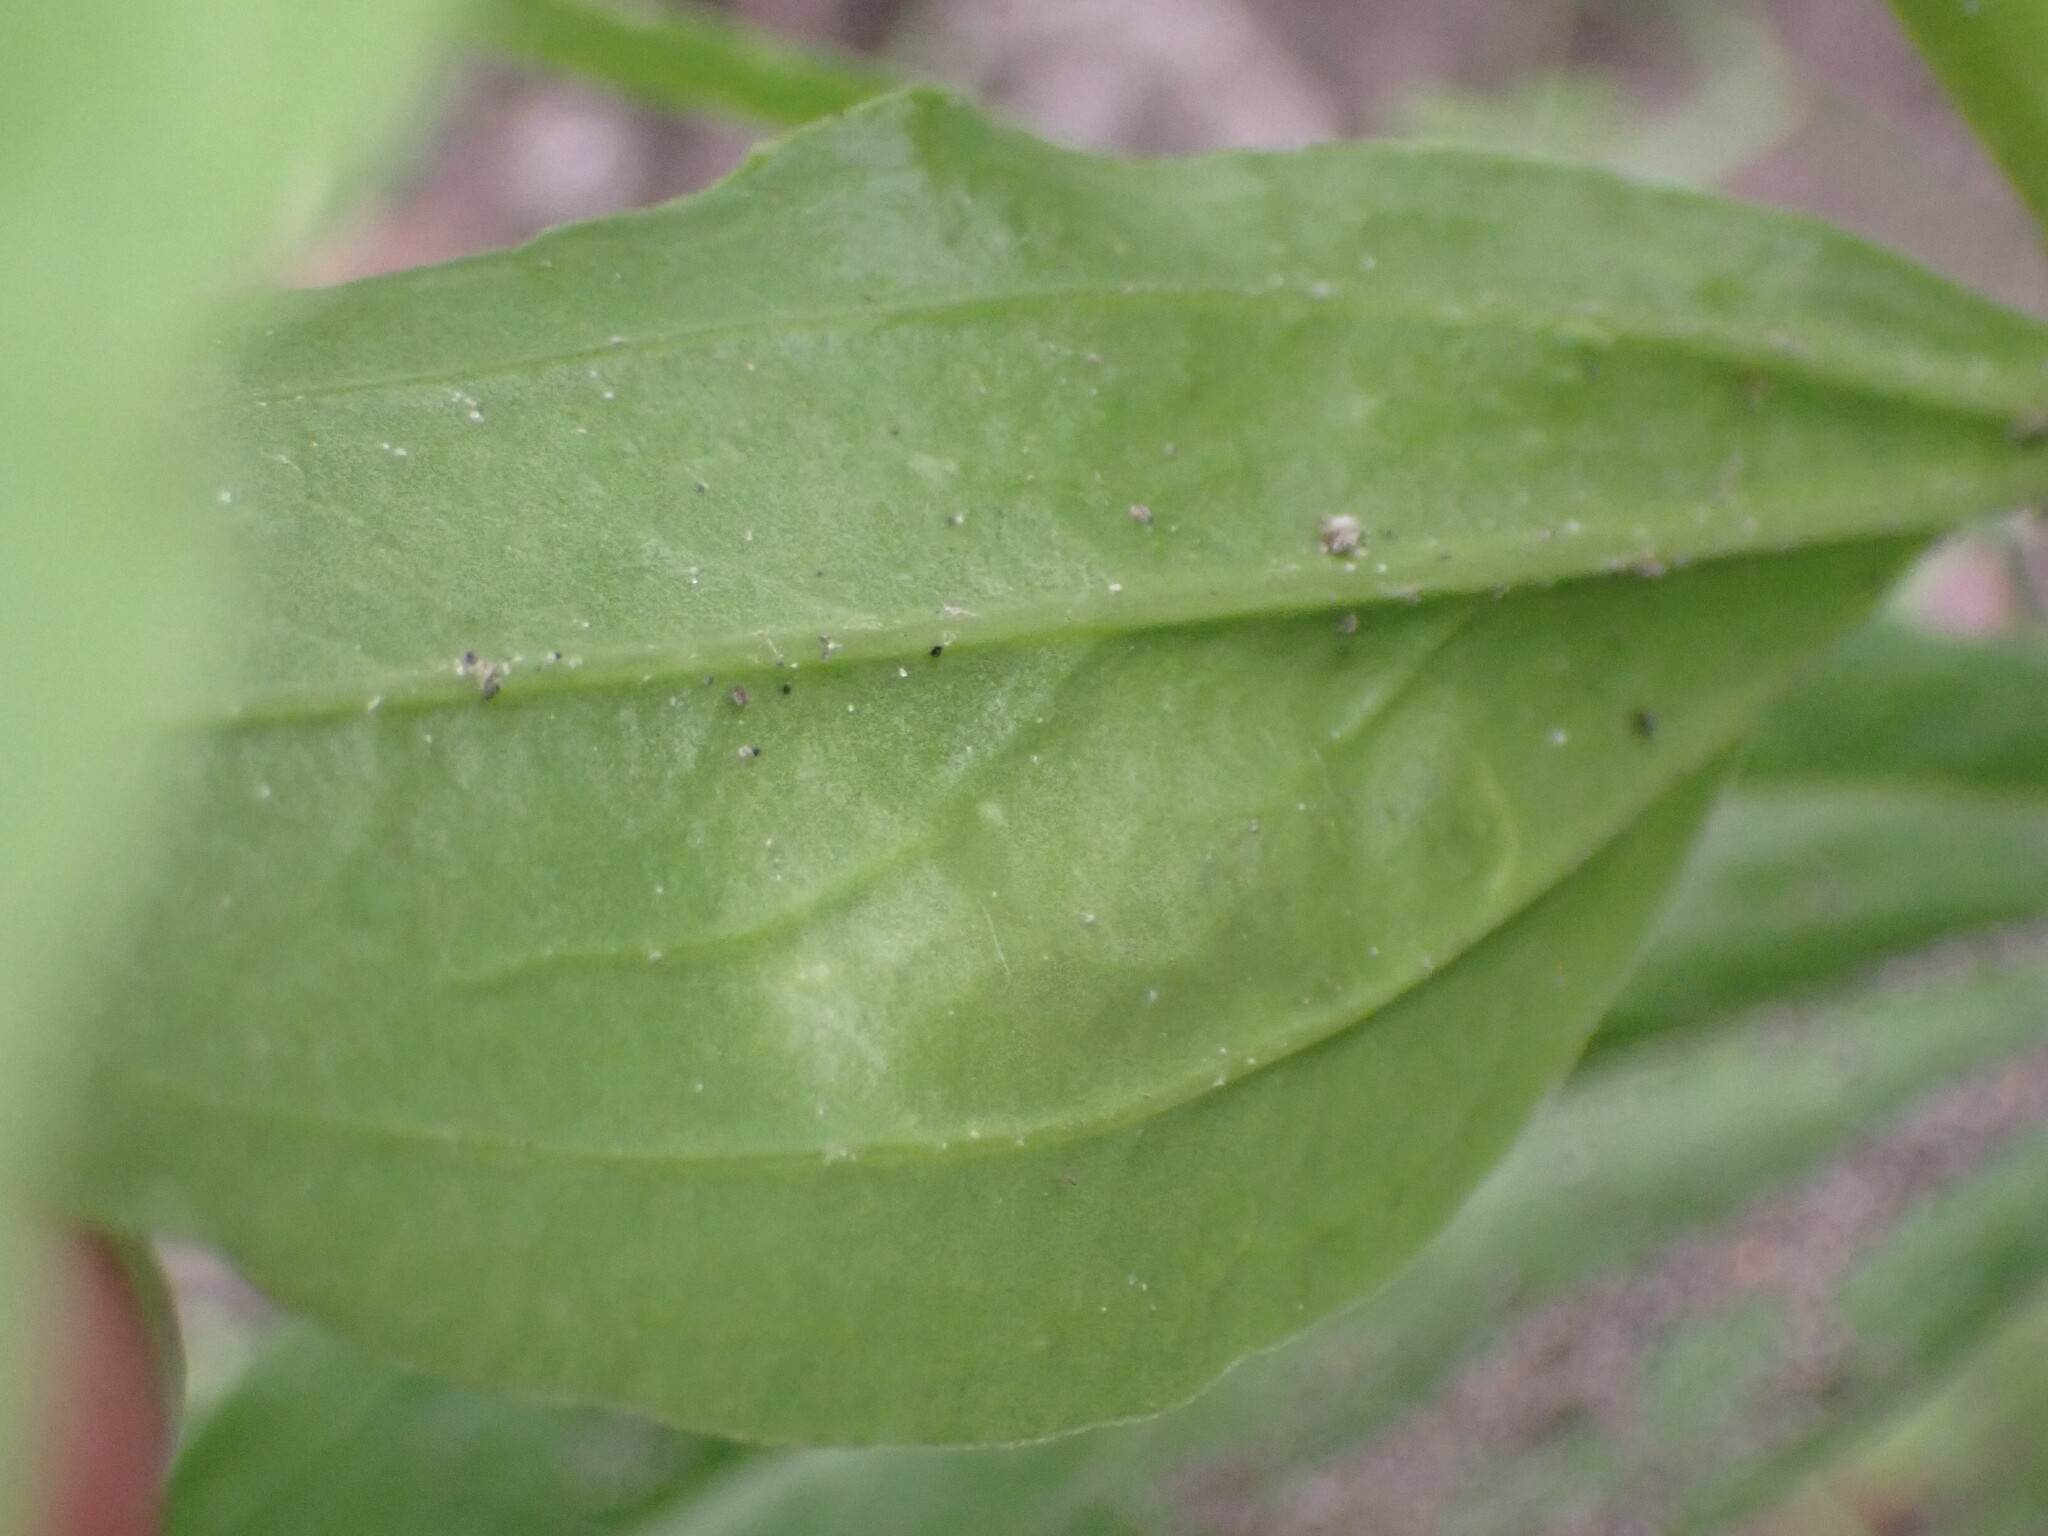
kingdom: Animalia
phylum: Arthropoda
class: Insecta
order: Diptera
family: Agromyzidae
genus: Amauromyza
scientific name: Amauromyza flavifrons
